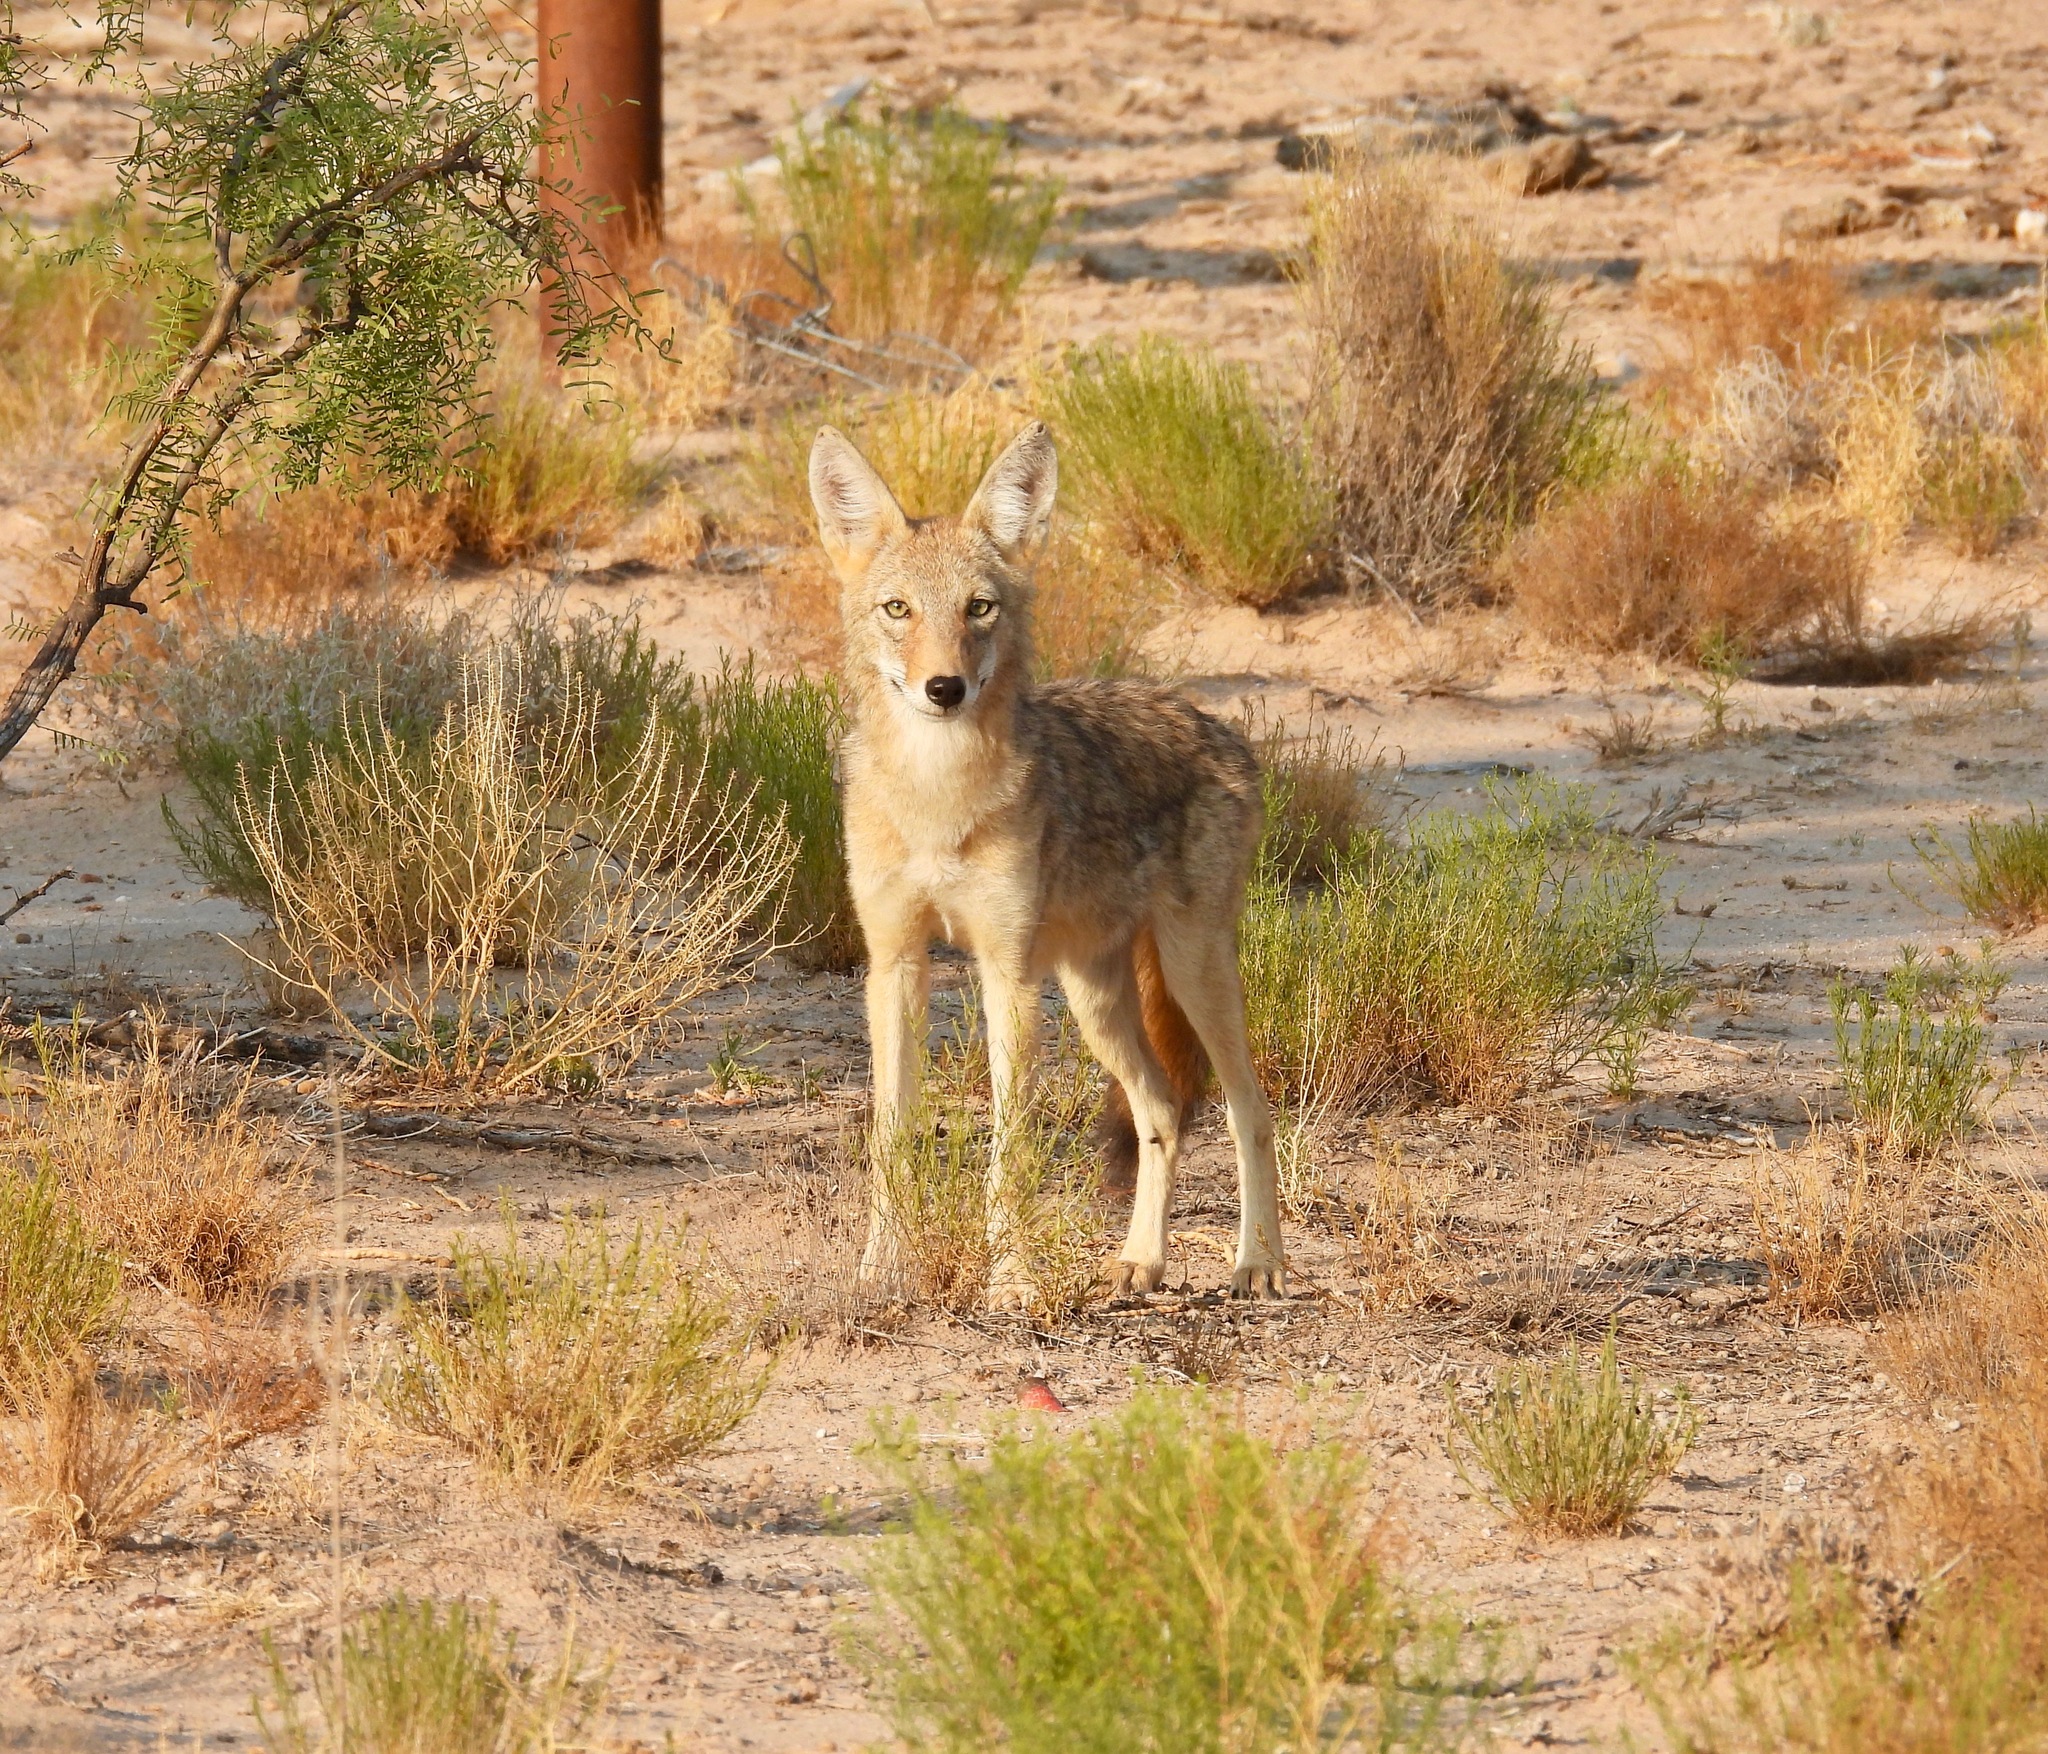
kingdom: Animalia
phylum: Chordata
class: Mammalia
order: Carnivora
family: Canidae
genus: Canis
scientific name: Canis latrans
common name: Coyote
